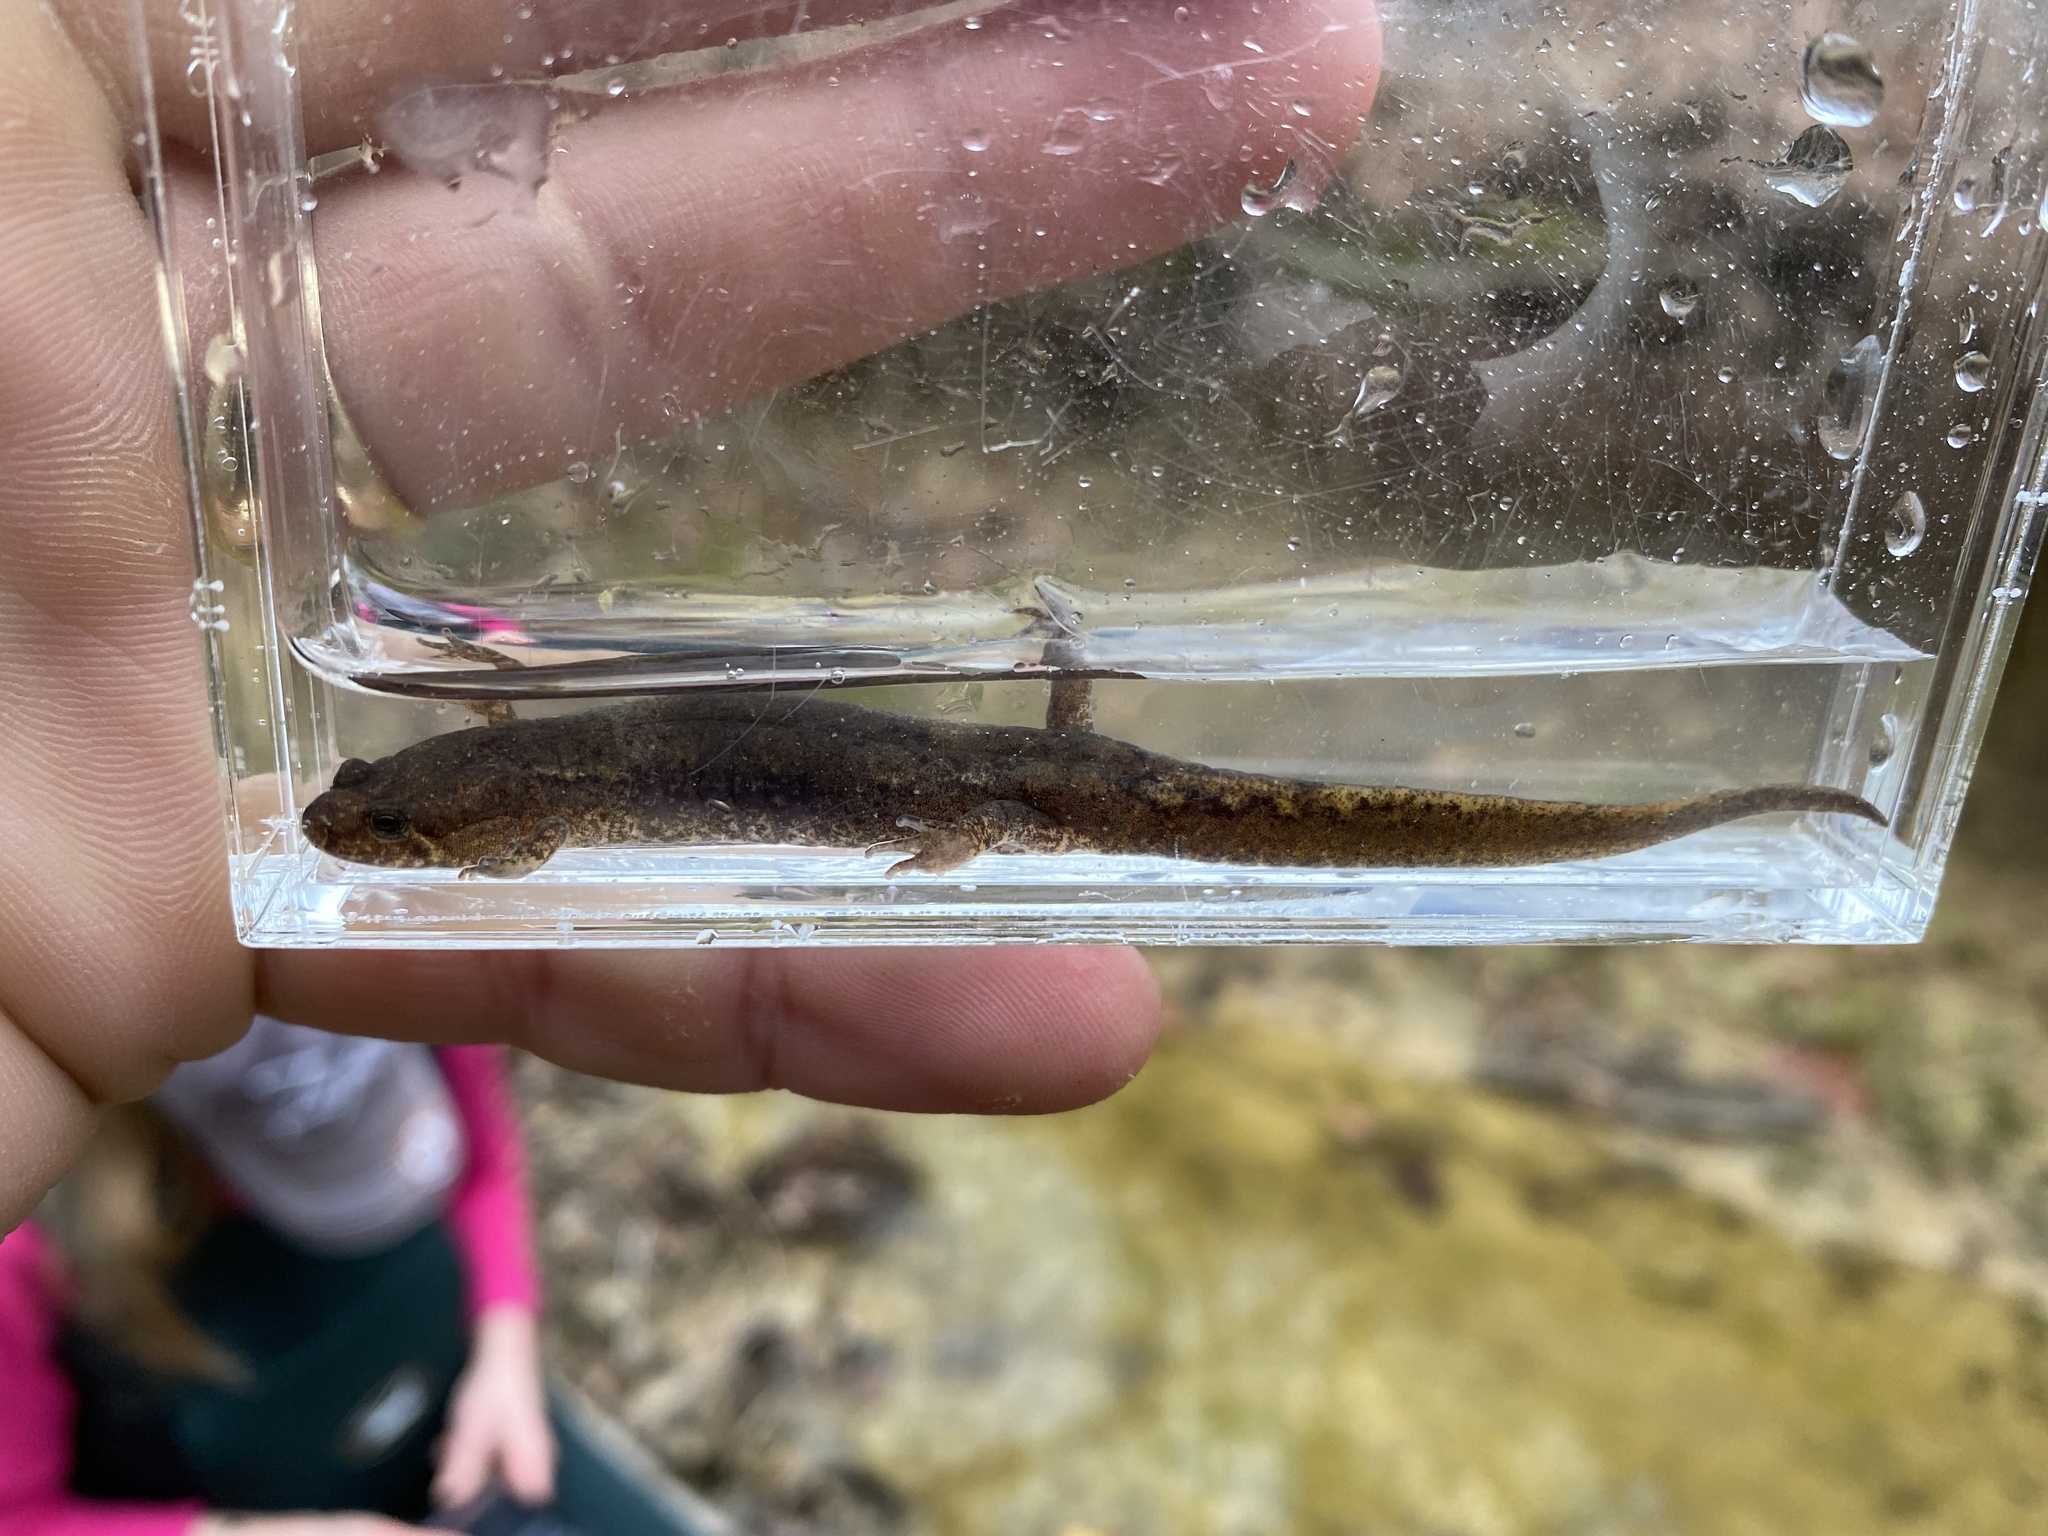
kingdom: Animalia
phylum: Chordata
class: Amphibia
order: Caudata
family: Plethodontidae
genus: Desmognathus
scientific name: Desmognathus conanti
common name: Spotted dusky salamander
